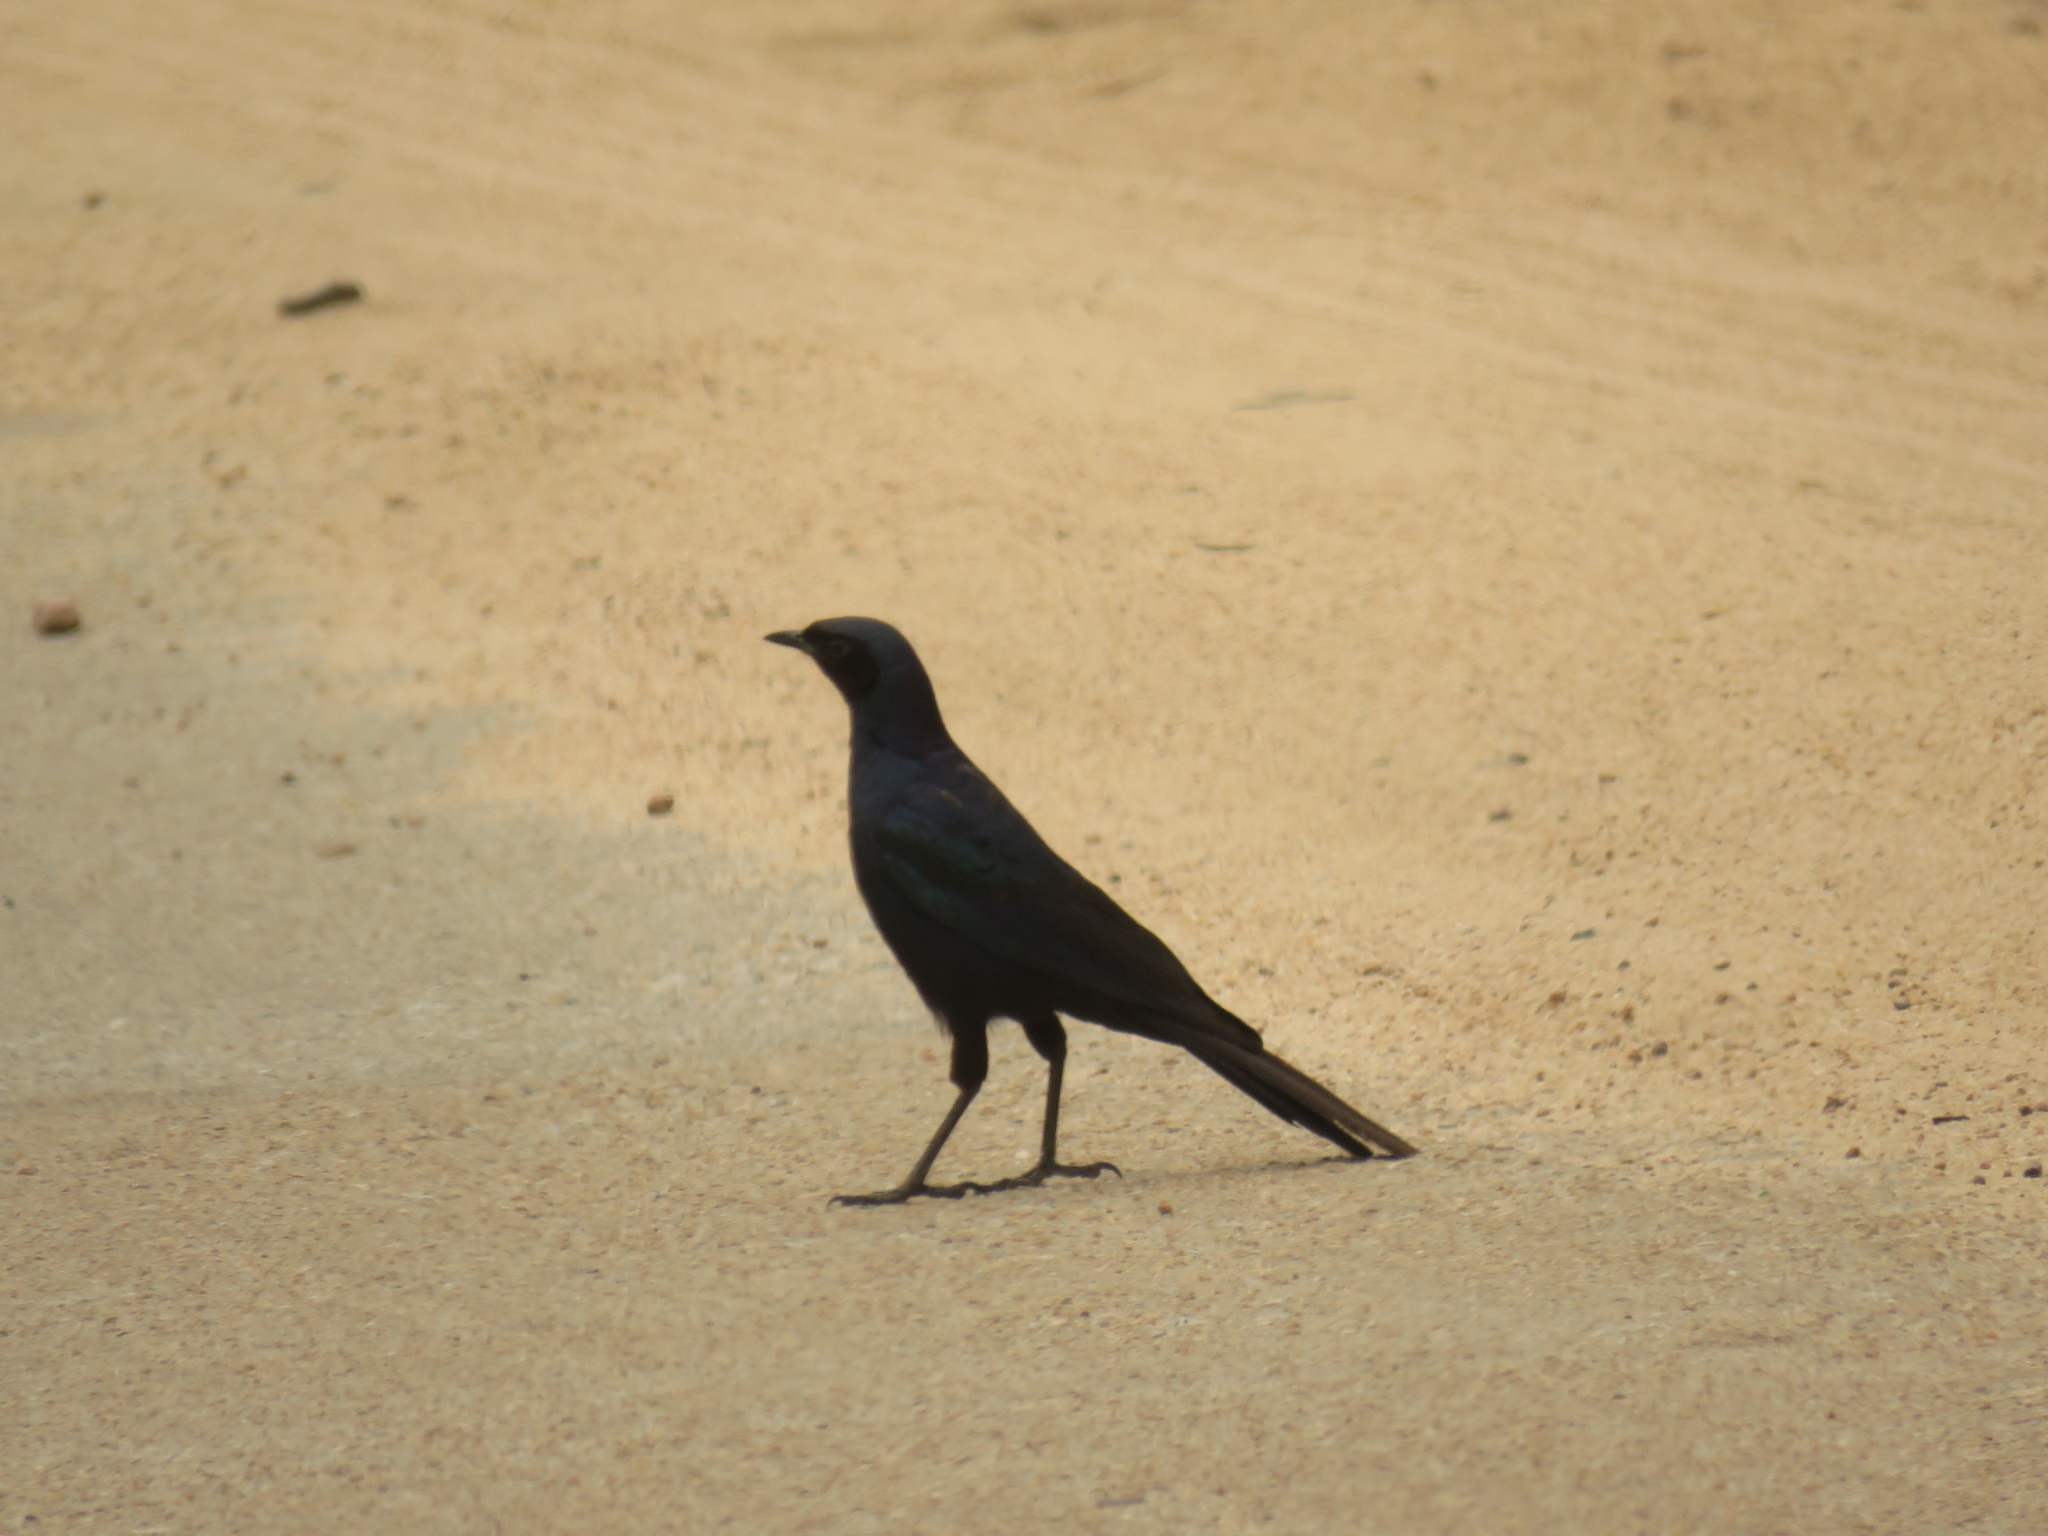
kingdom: Animalia
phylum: Chordata
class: Aves
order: Passeriformes
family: Sturnidae
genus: Lamprotornis
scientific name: Lamprotornis australis
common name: Burchell's starling
